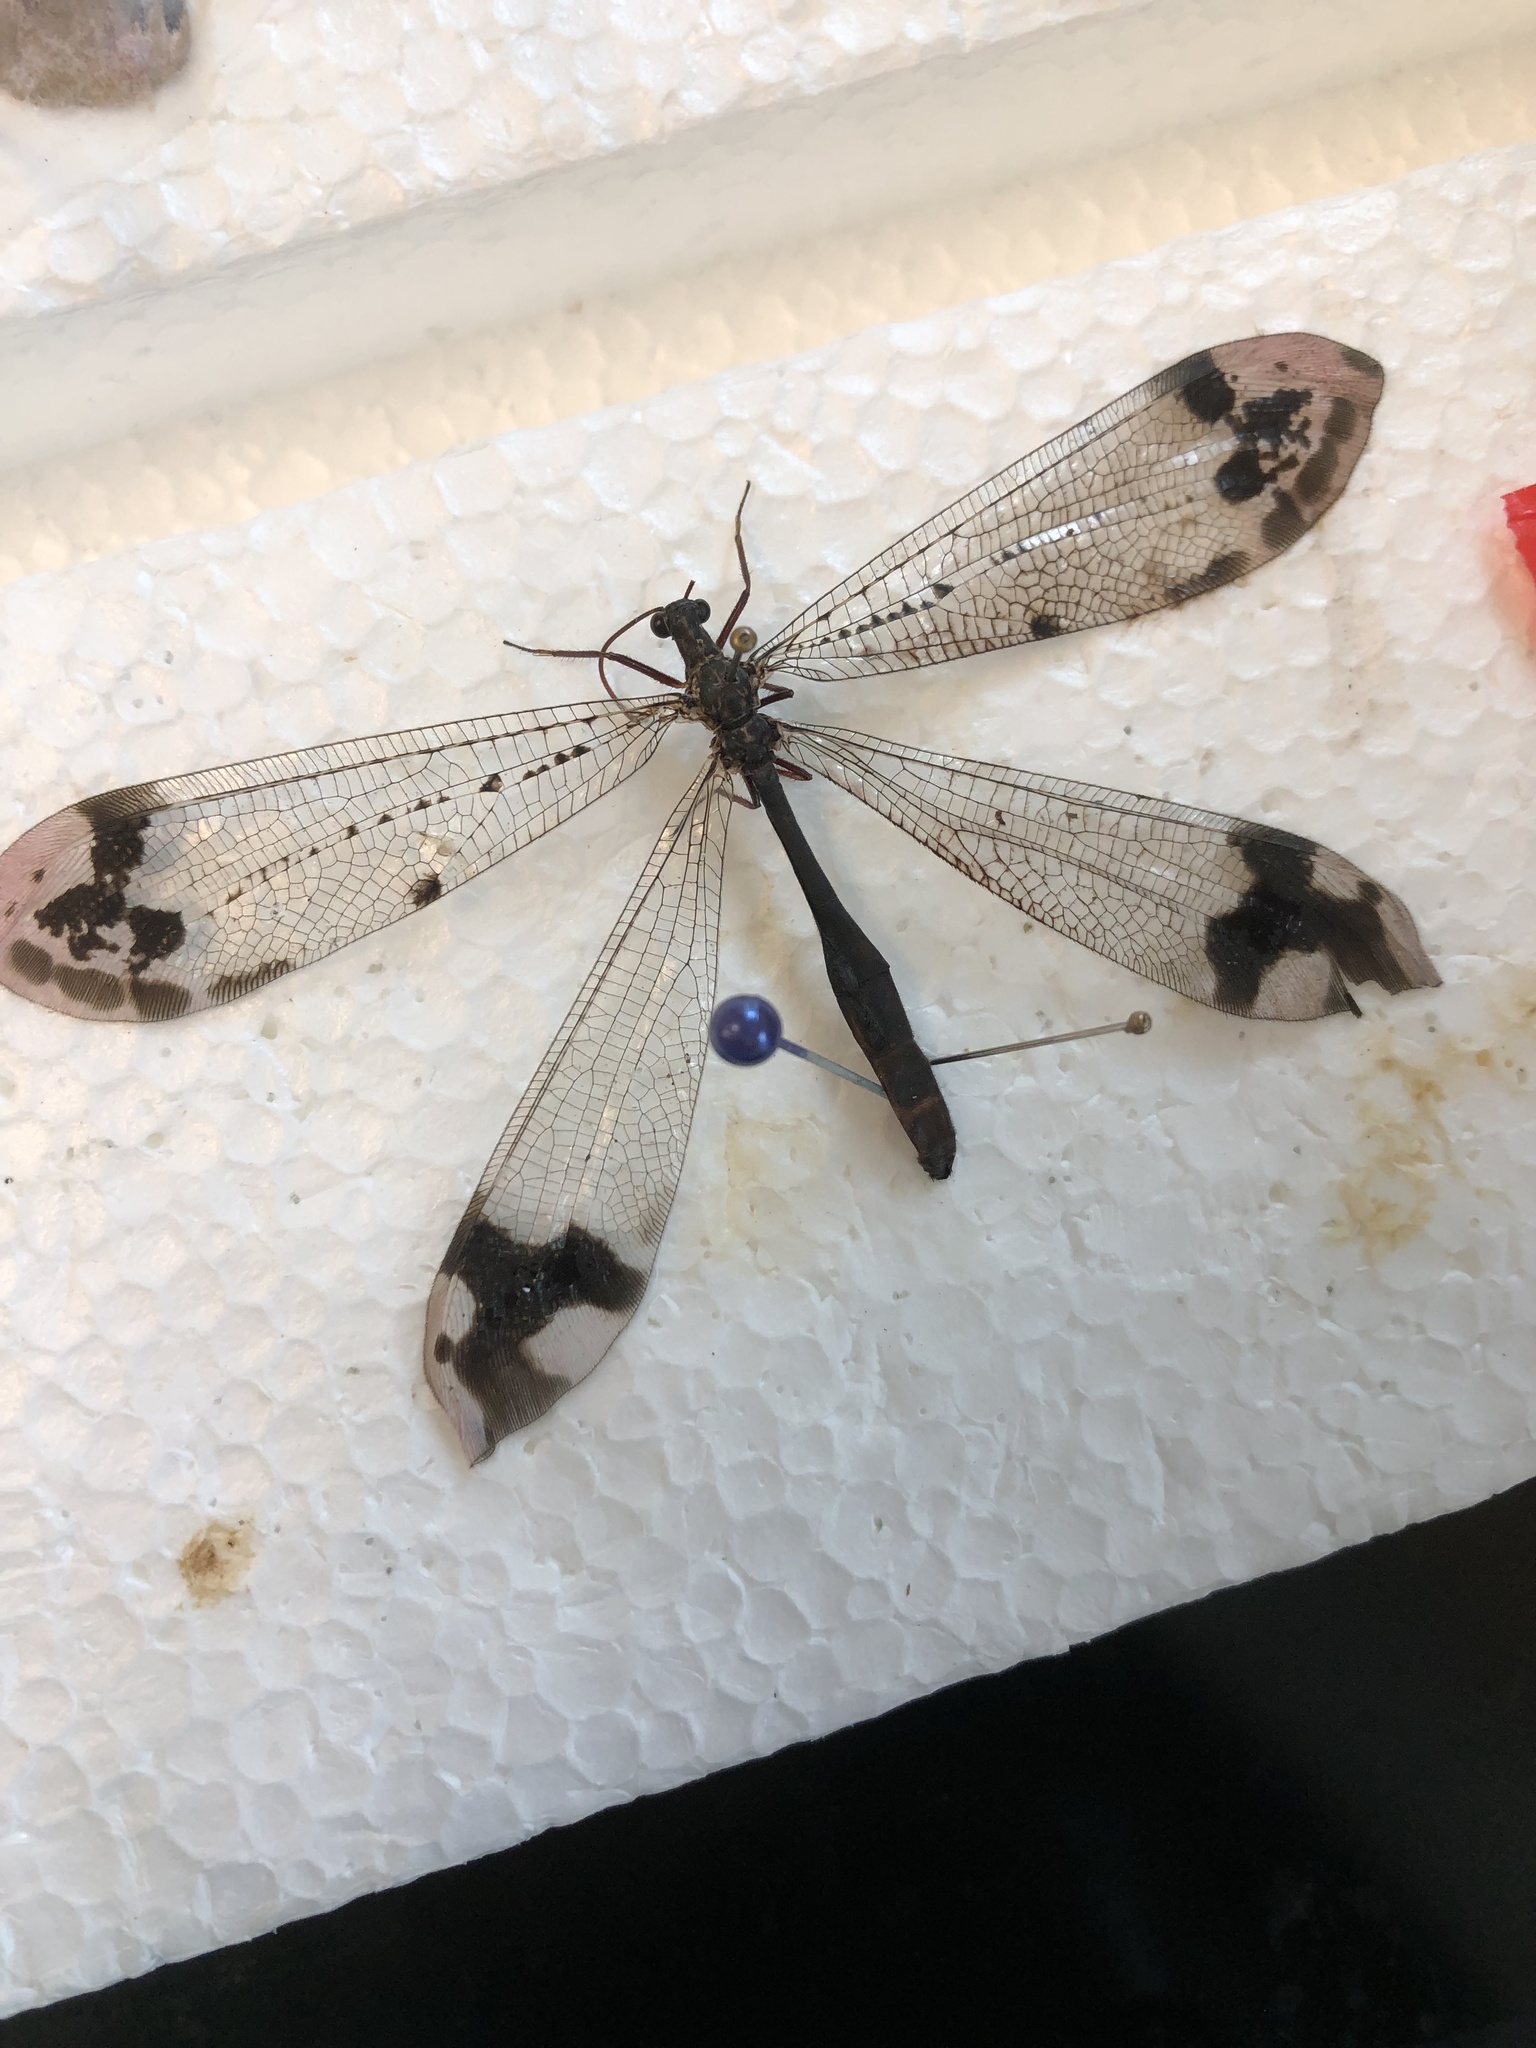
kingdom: Animalia
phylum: Arthropoda
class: Insecta
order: Neuroptera
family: Myrmeleontidae
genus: Glenurus
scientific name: Glenurus gratus
